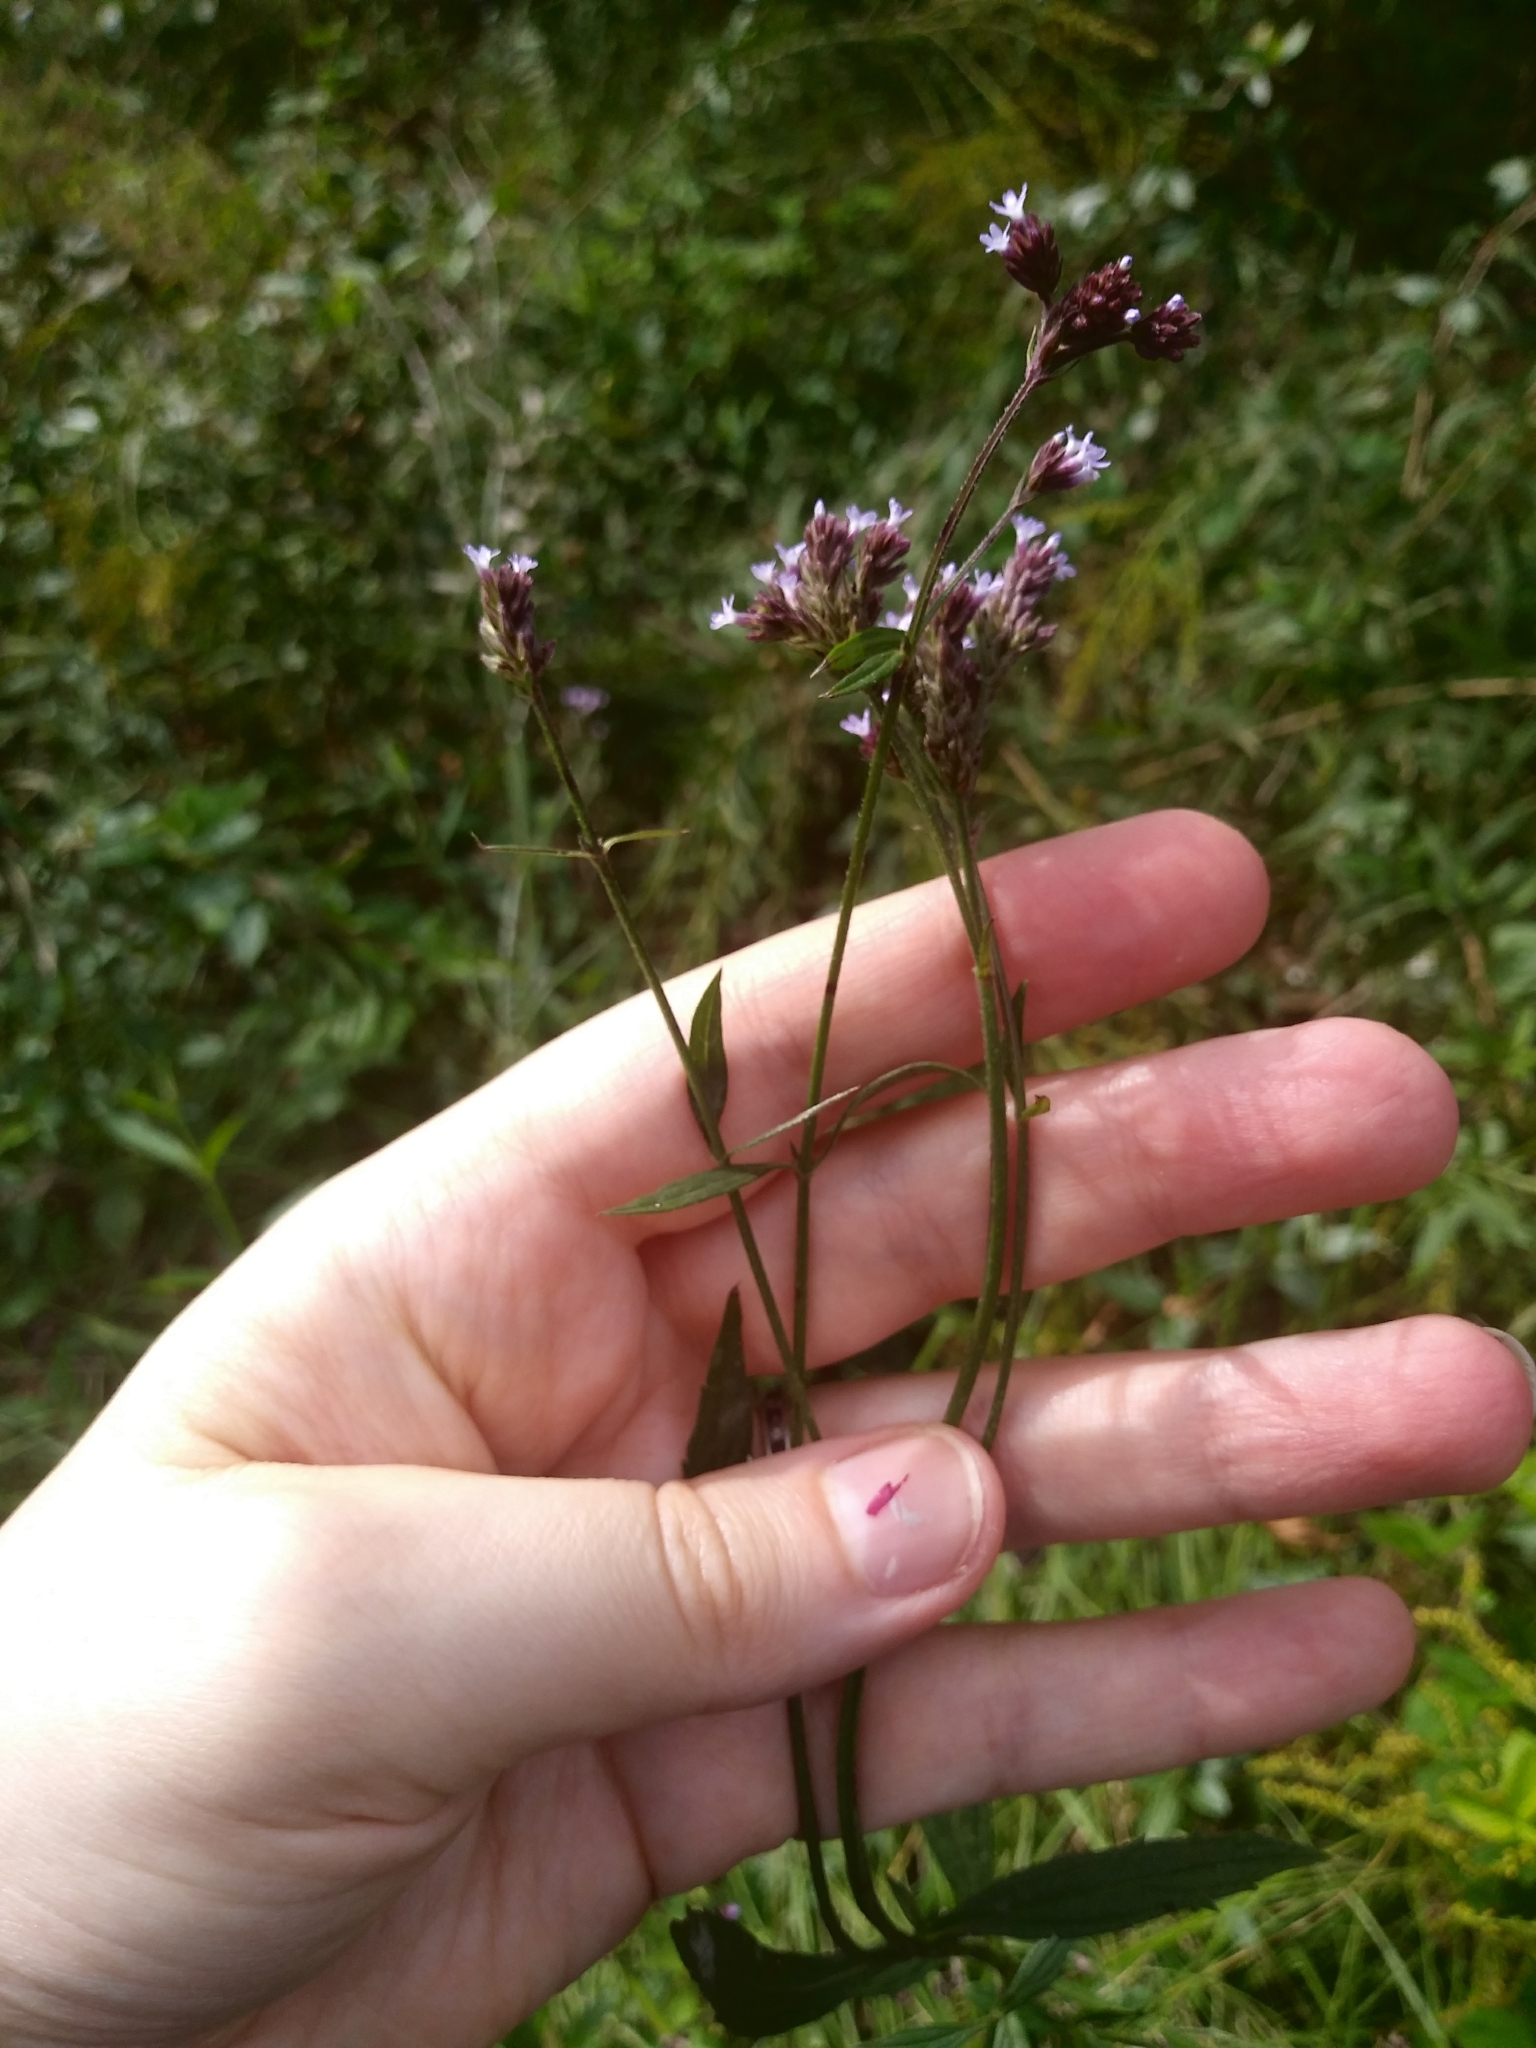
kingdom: Plantae
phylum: Tracheophyta
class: Magnoliopsida
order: Lamiales
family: Verbenaceae
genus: Verbena
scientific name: Verbena brasiliensis
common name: Brazilian vervain
